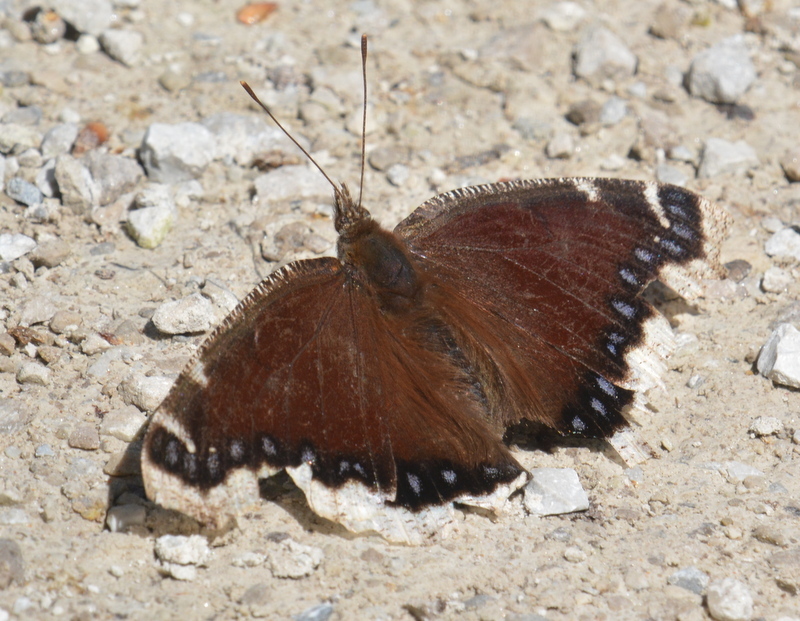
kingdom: Animalia
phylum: Arthropoda
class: Insecta
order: Lepidoptera
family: Nymphalidae
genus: Nymphalis
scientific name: Nymphalis antiopa
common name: Camberwell beauty
